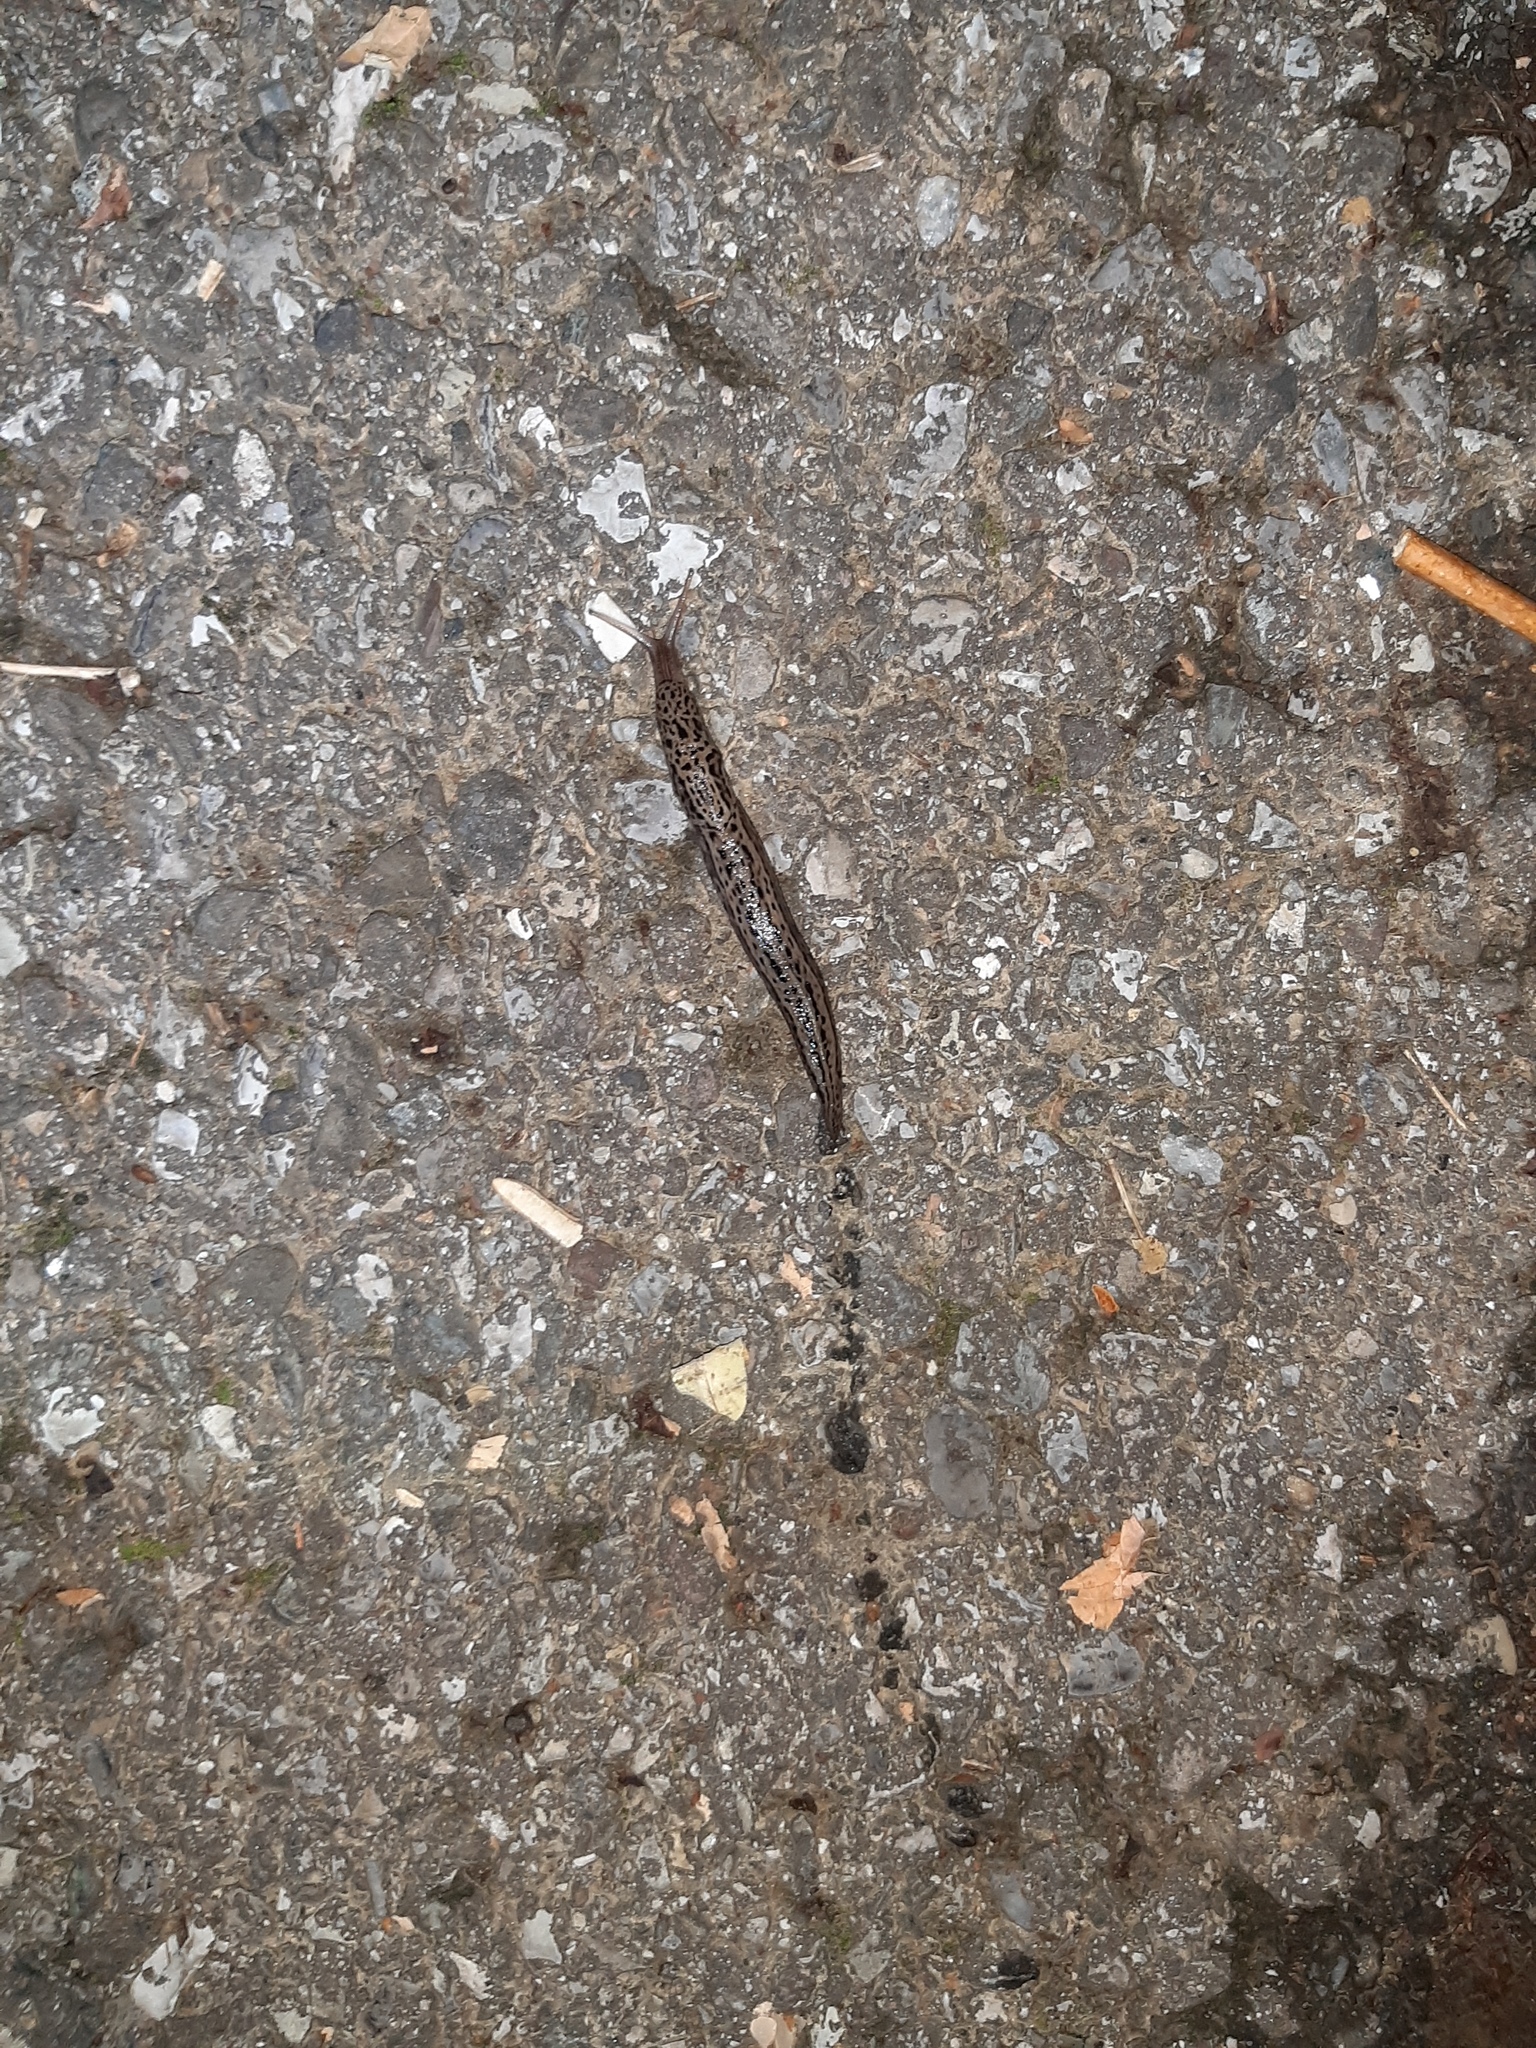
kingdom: Animalia
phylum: Mollusca
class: Gastropoda
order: Stylommatophora
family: Limacidae
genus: Limax
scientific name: Limax maximus
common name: Great grey slug
